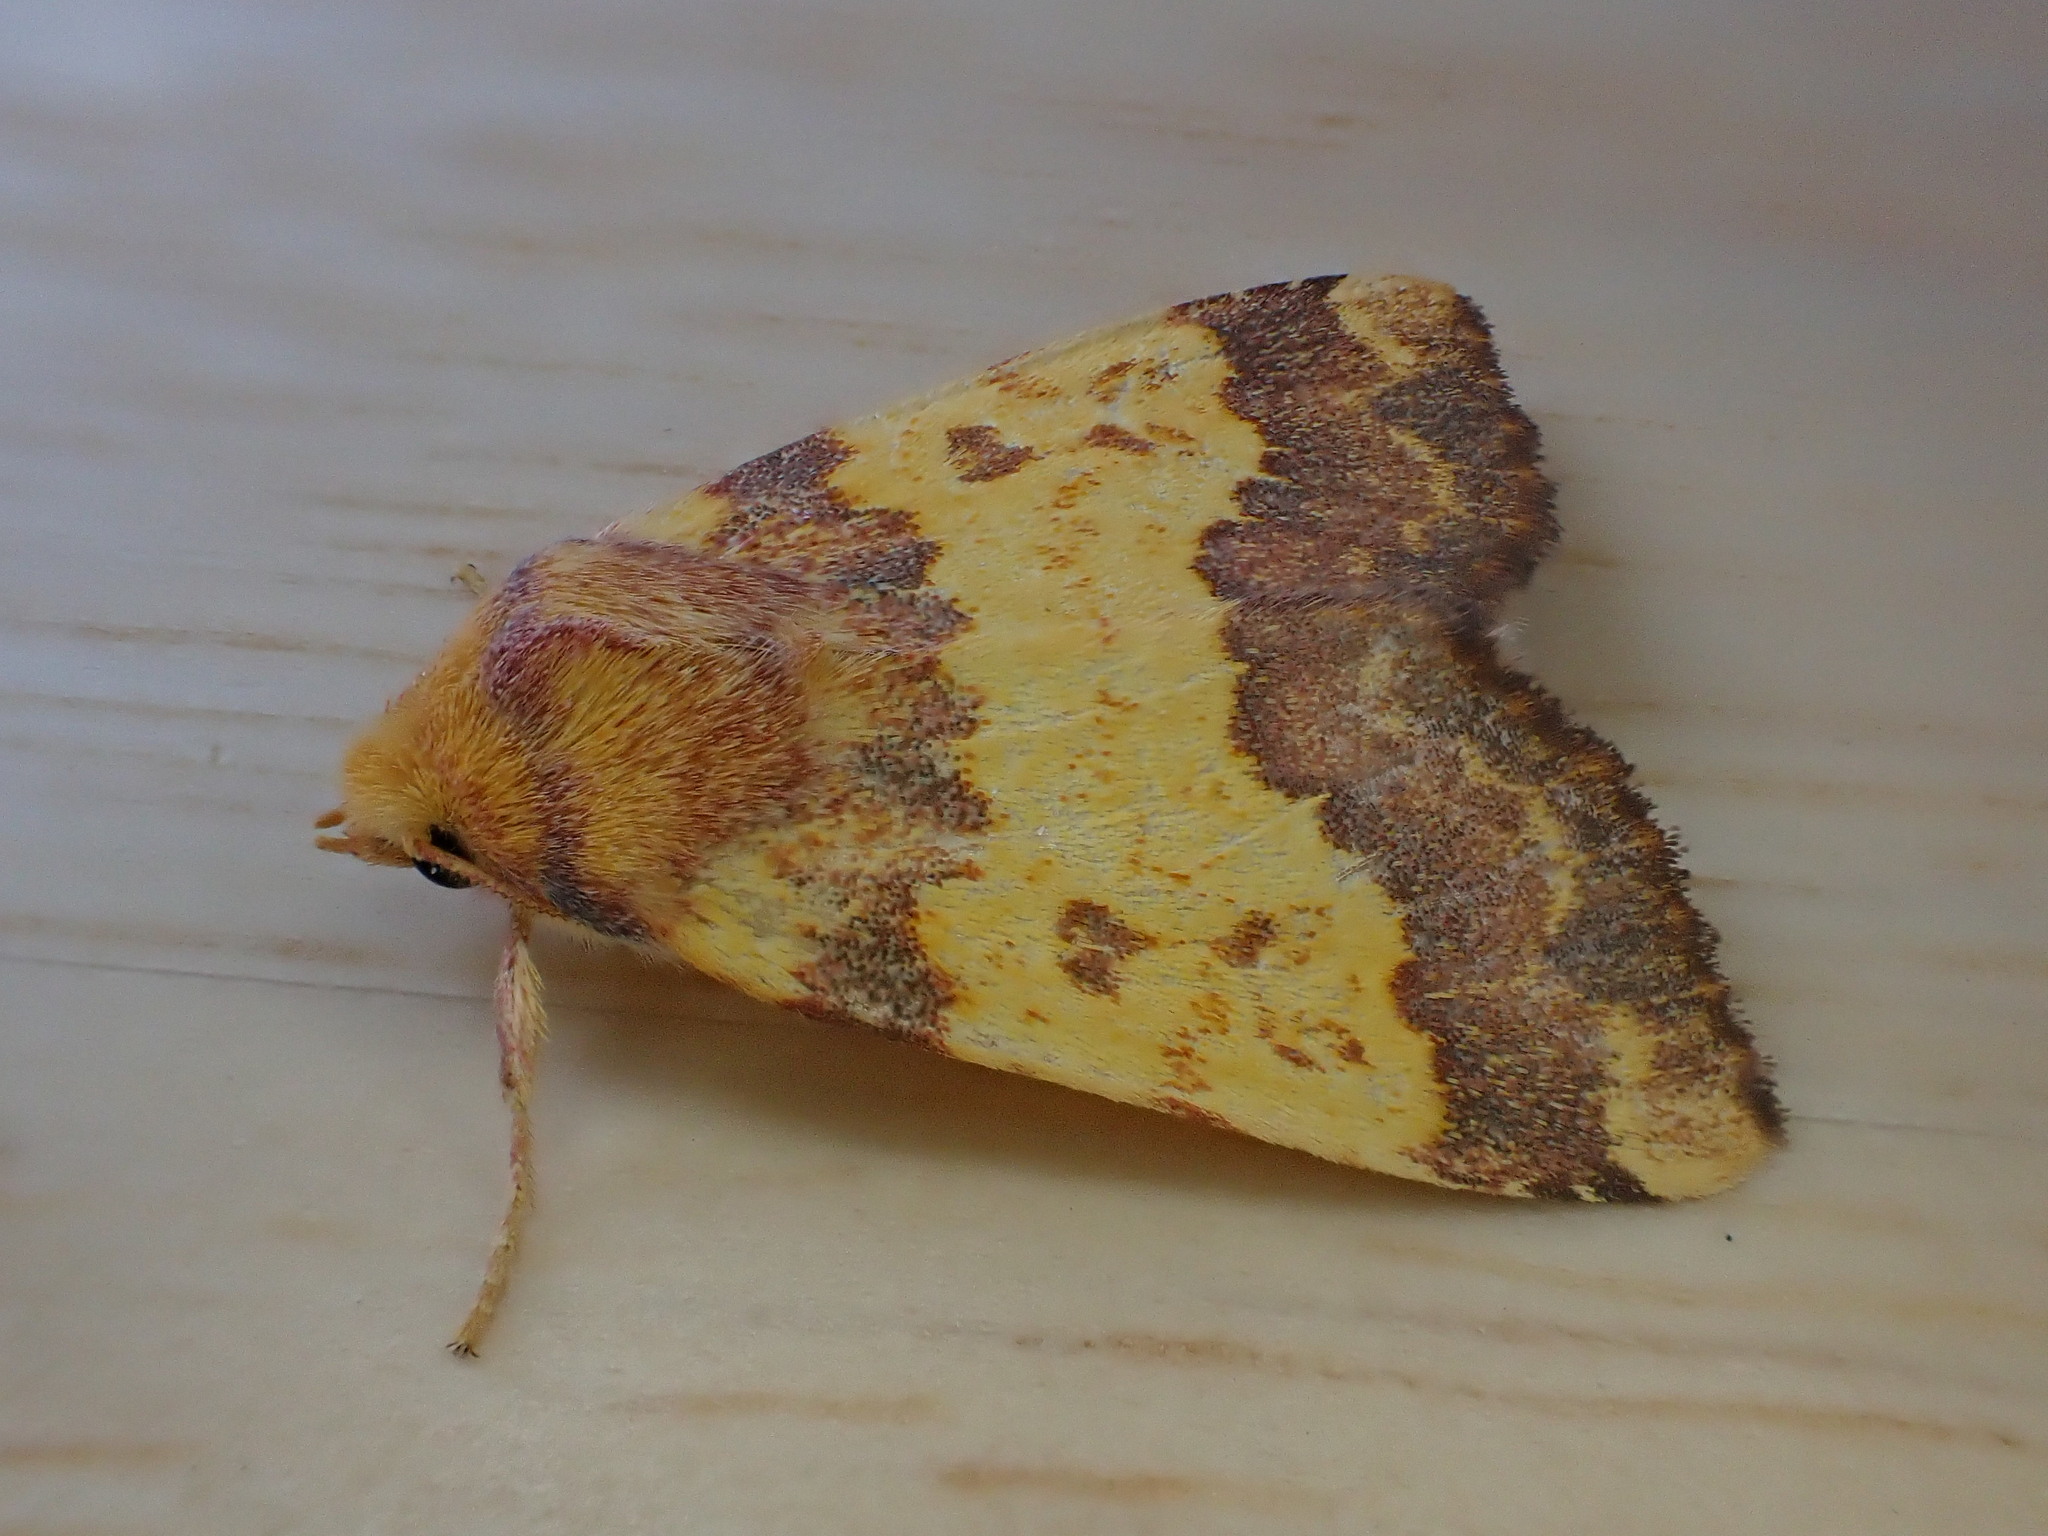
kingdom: Animalia
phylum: Arthropoda
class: Insecta
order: Lepidoptera
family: Noctuidae
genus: Tiliacea
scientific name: Tiliacea aurago
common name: Barred sallow
